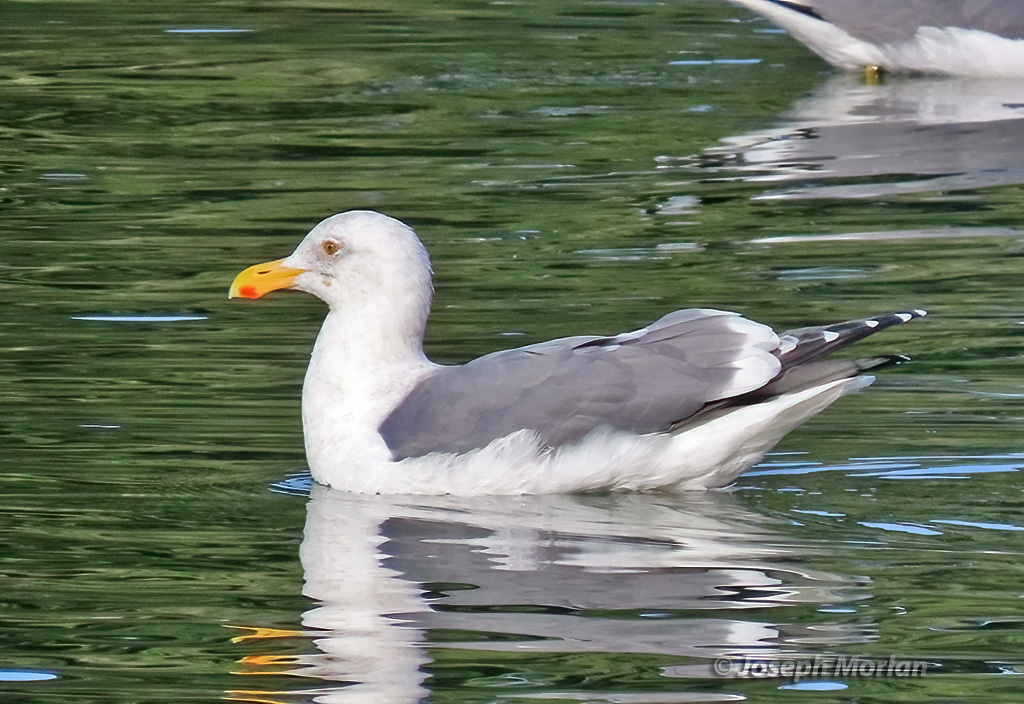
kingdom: Animalia
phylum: Chordata
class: Aves
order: Charadriiformes
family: Laridae
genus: Larus
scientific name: Larus occidentalis
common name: Western gull
